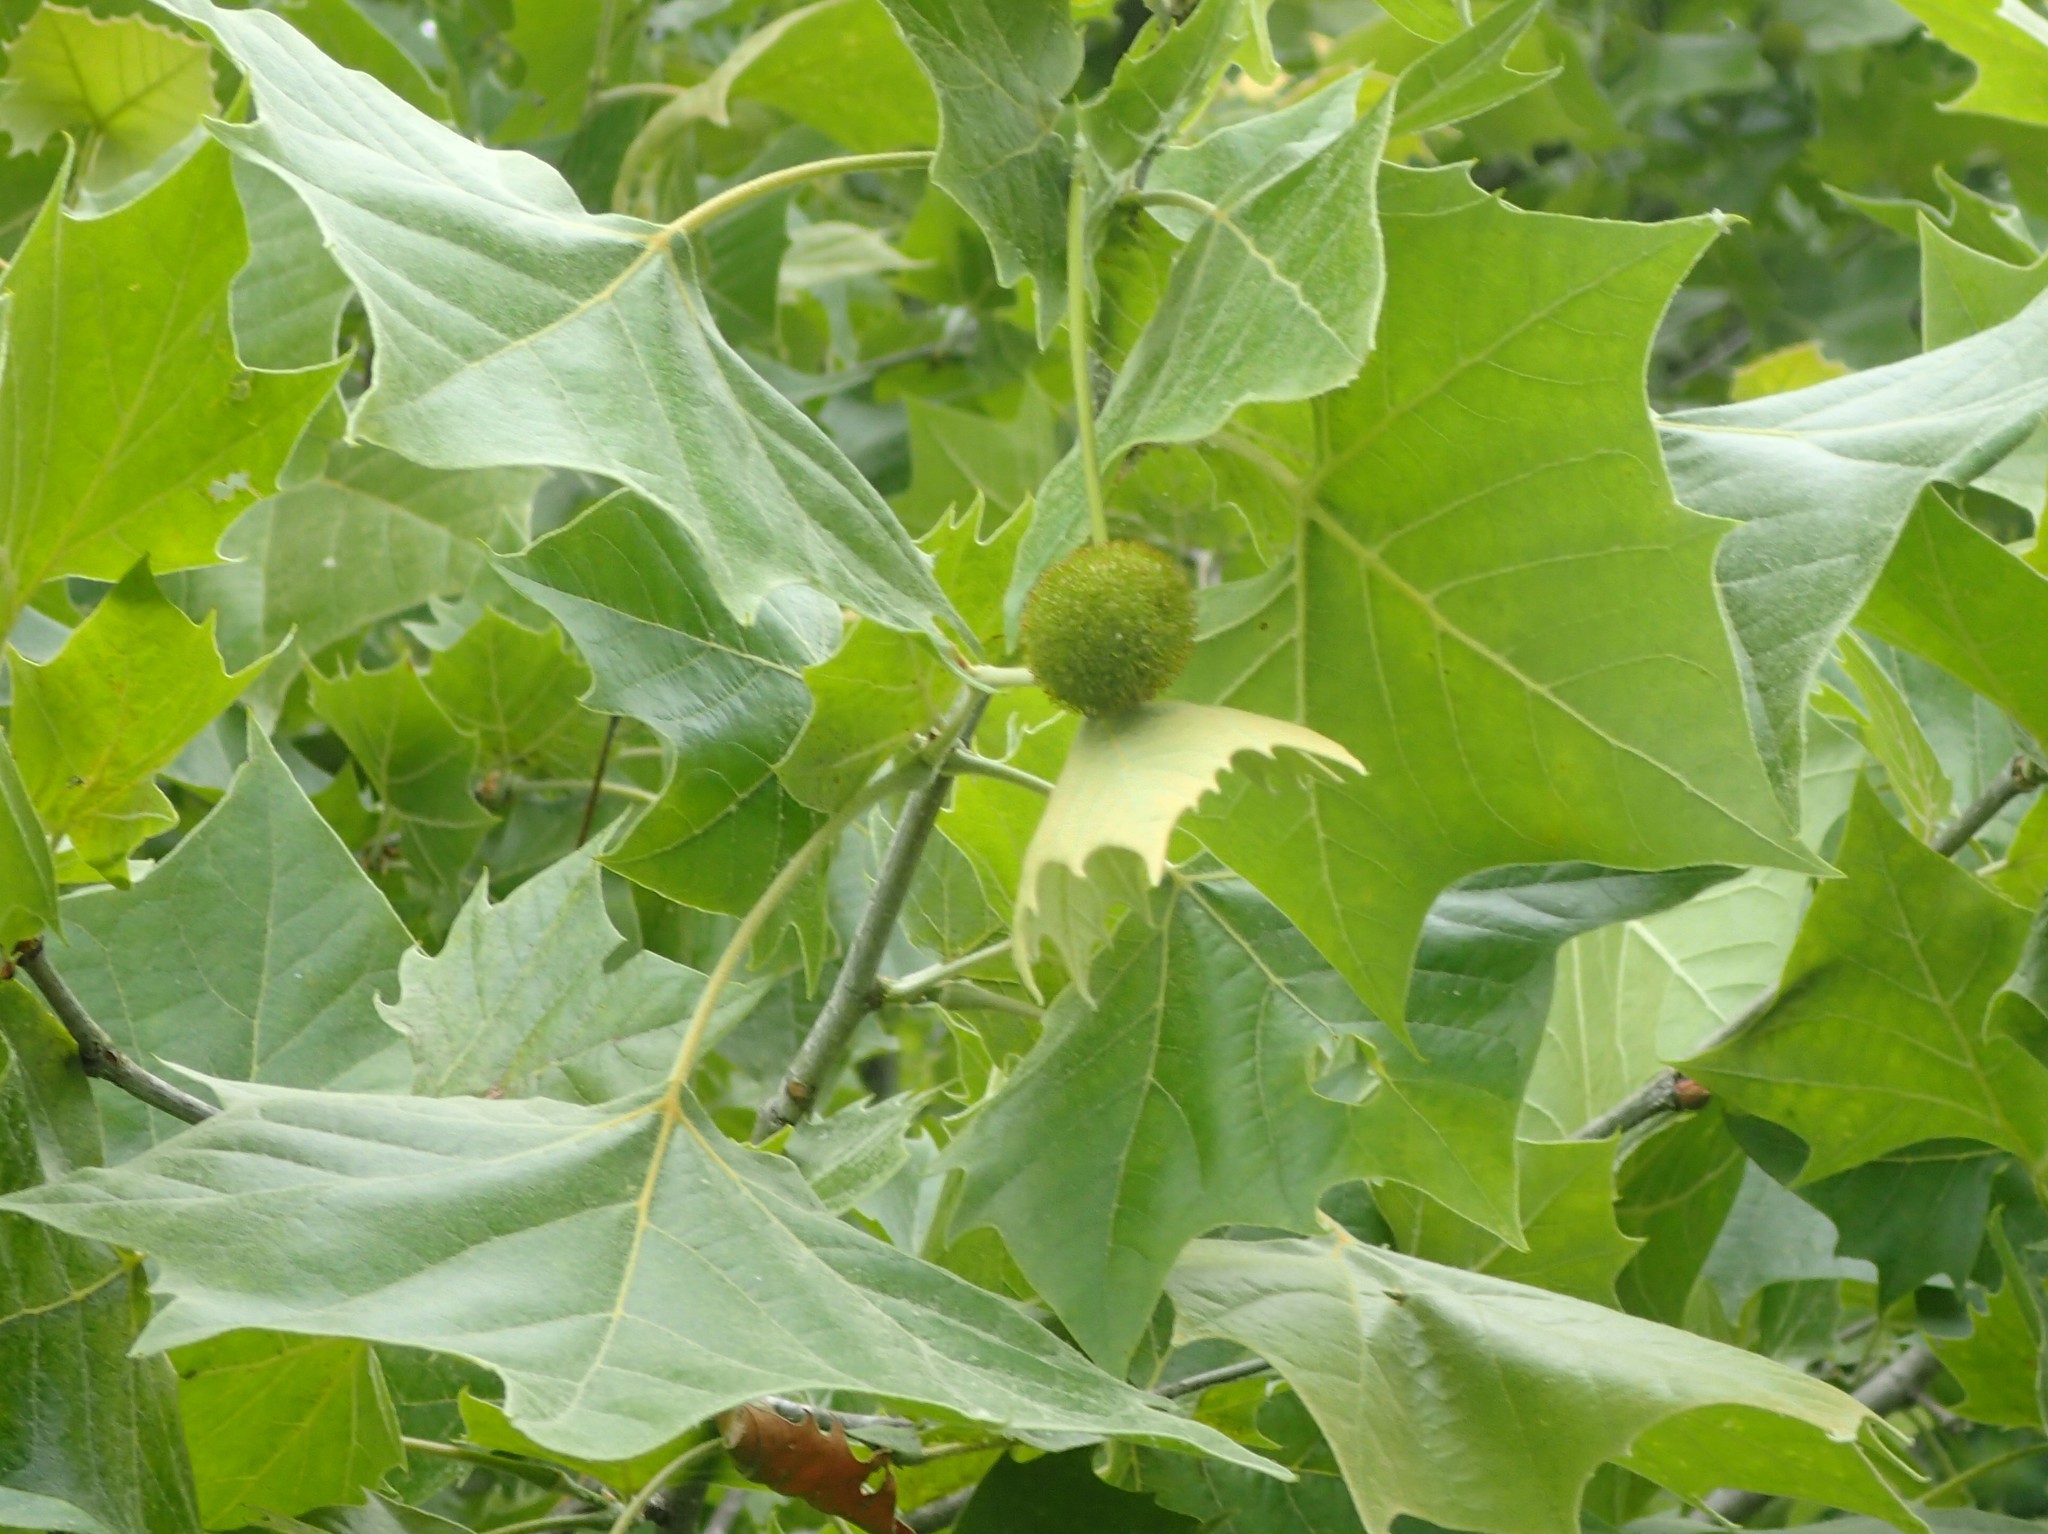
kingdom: Plantae
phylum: Tracheophyta
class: Magnoliopsida
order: Proteales
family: Platanaceae
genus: Platanus
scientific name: Platanus occidentalis
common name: American sycamore
